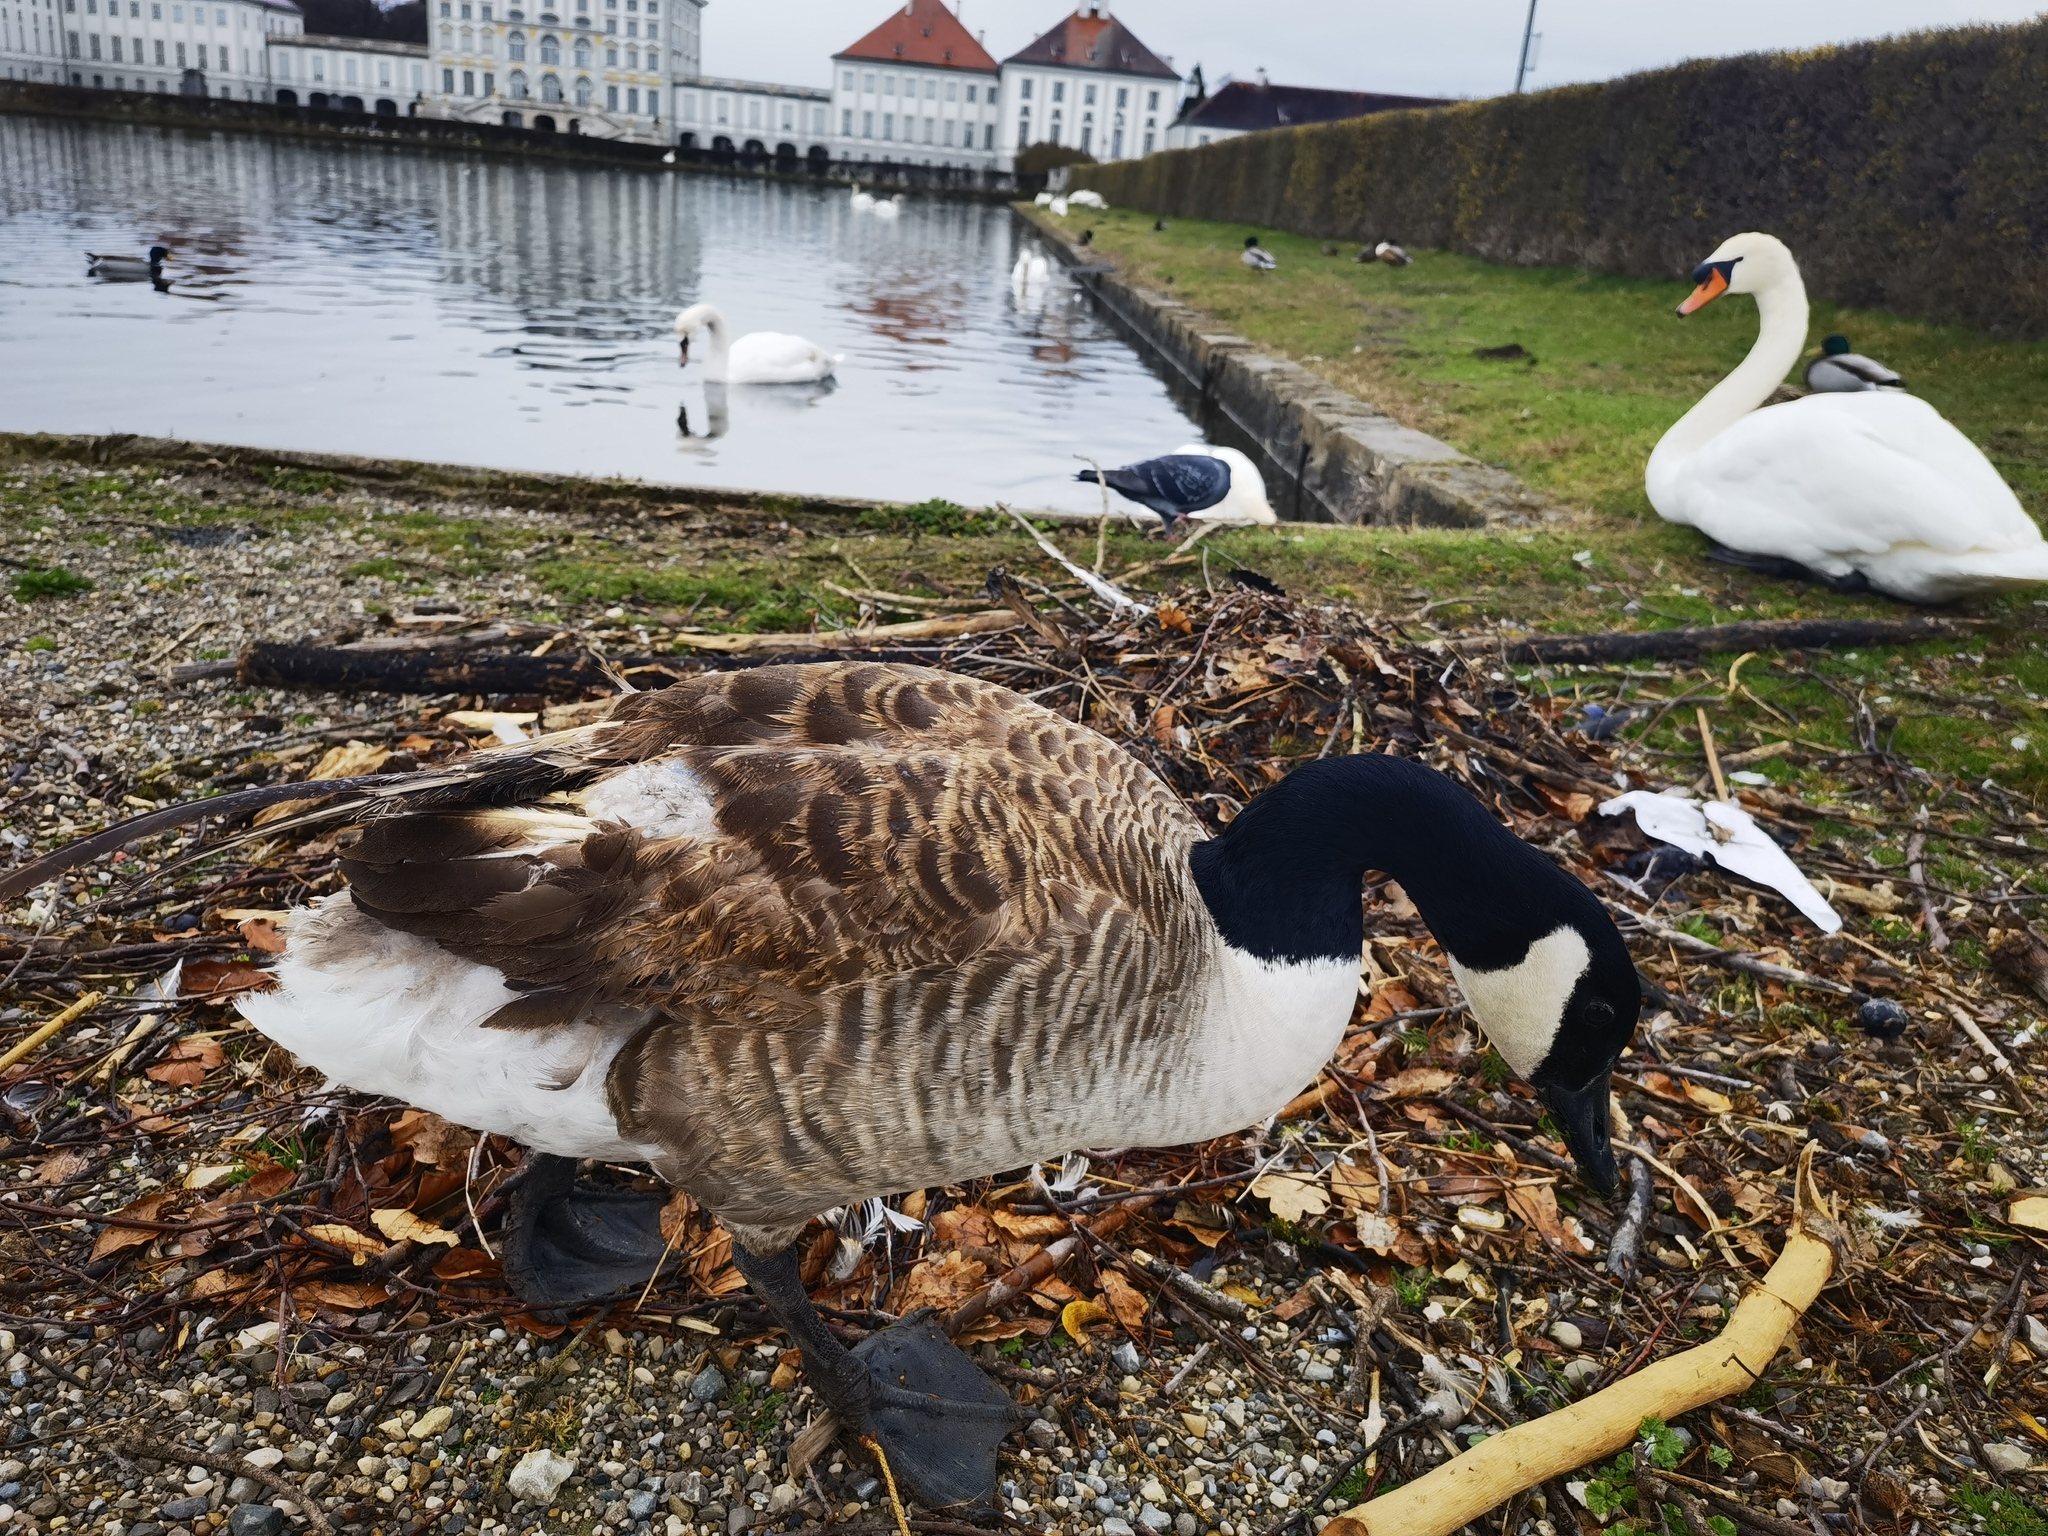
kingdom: Animalia
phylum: Chordata
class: Aves
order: Anseriformes
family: Anatidae
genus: Cygnus
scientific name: Cygnus olor
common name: Mute swan
